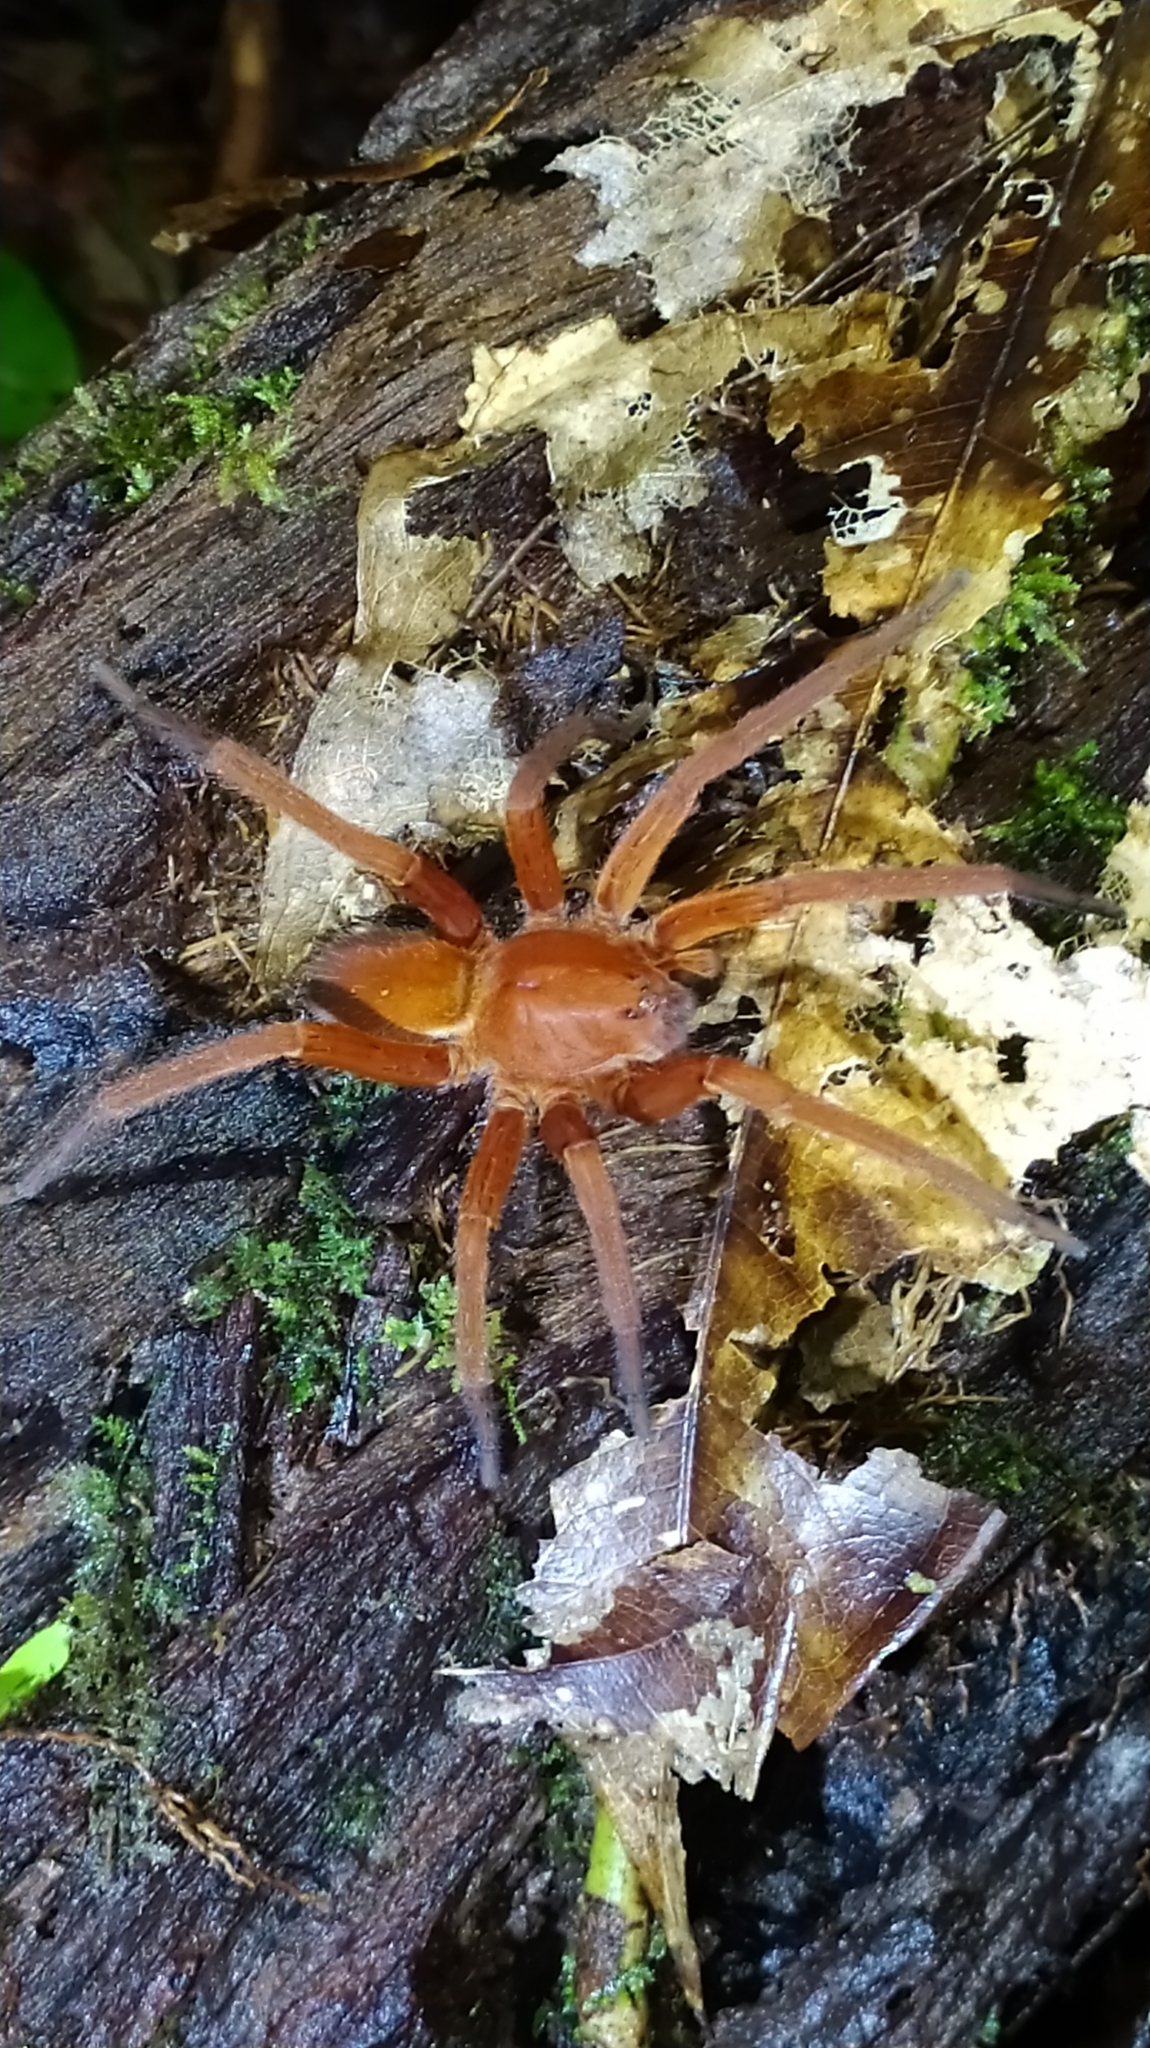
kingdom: Animalia
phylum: Arthropoda
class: Arachnida
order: Araneae
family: Ctenidae
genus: Ancylometes
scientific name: Ancylometes rufus
